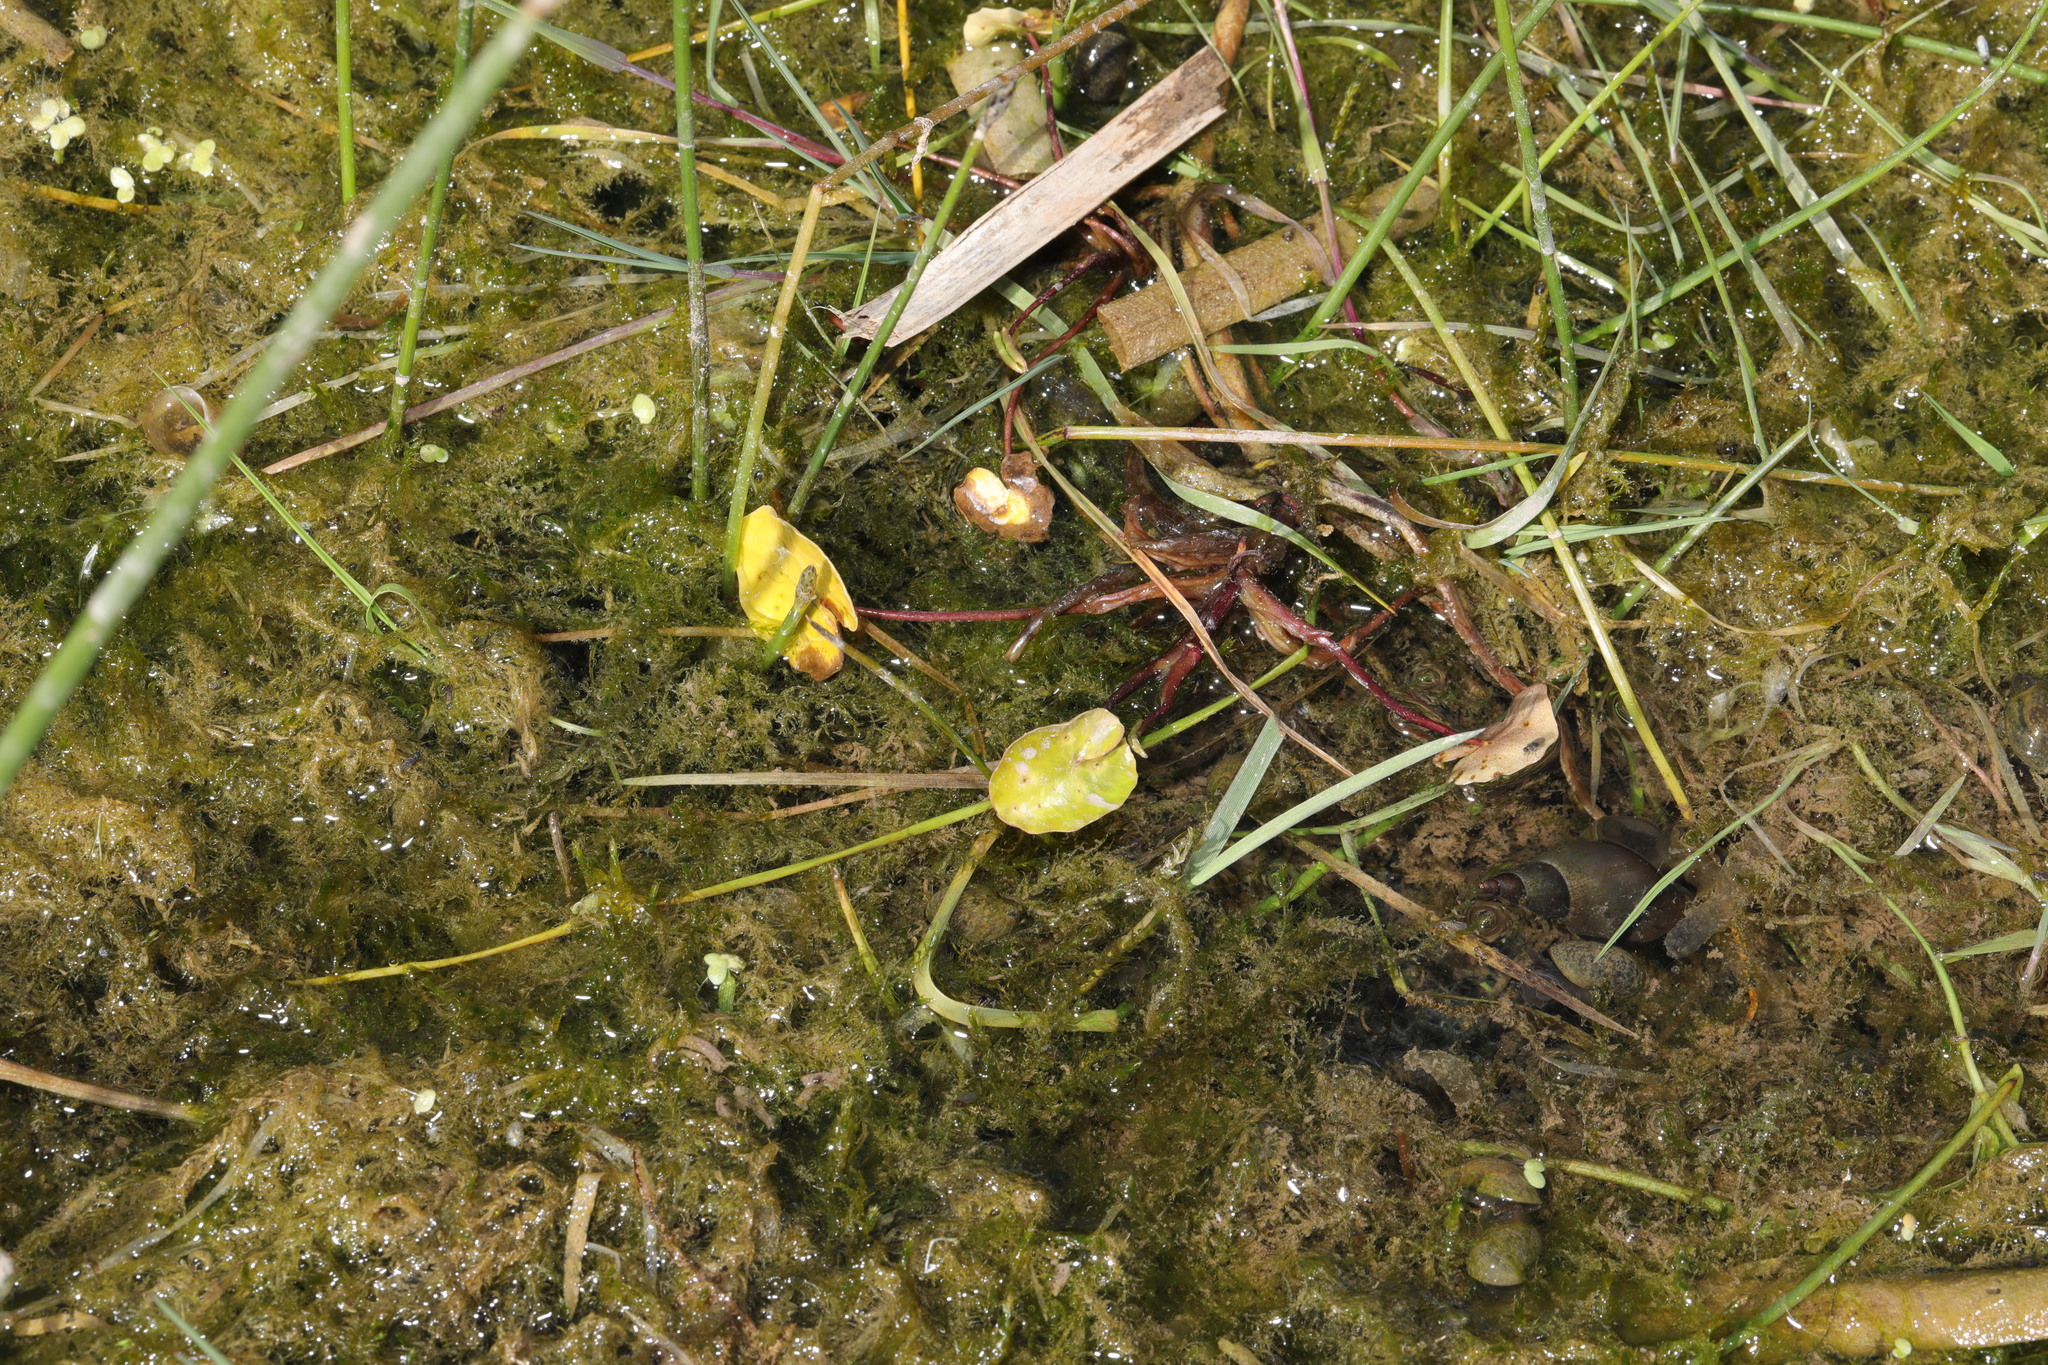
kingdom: Plantae
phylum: Tracheophyta
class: Liliopsida
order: Alismatales
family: Hydrocharitaceae
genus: Hydrocharis
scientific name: Hydrocharis morsus-ranae
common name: Frogbit
